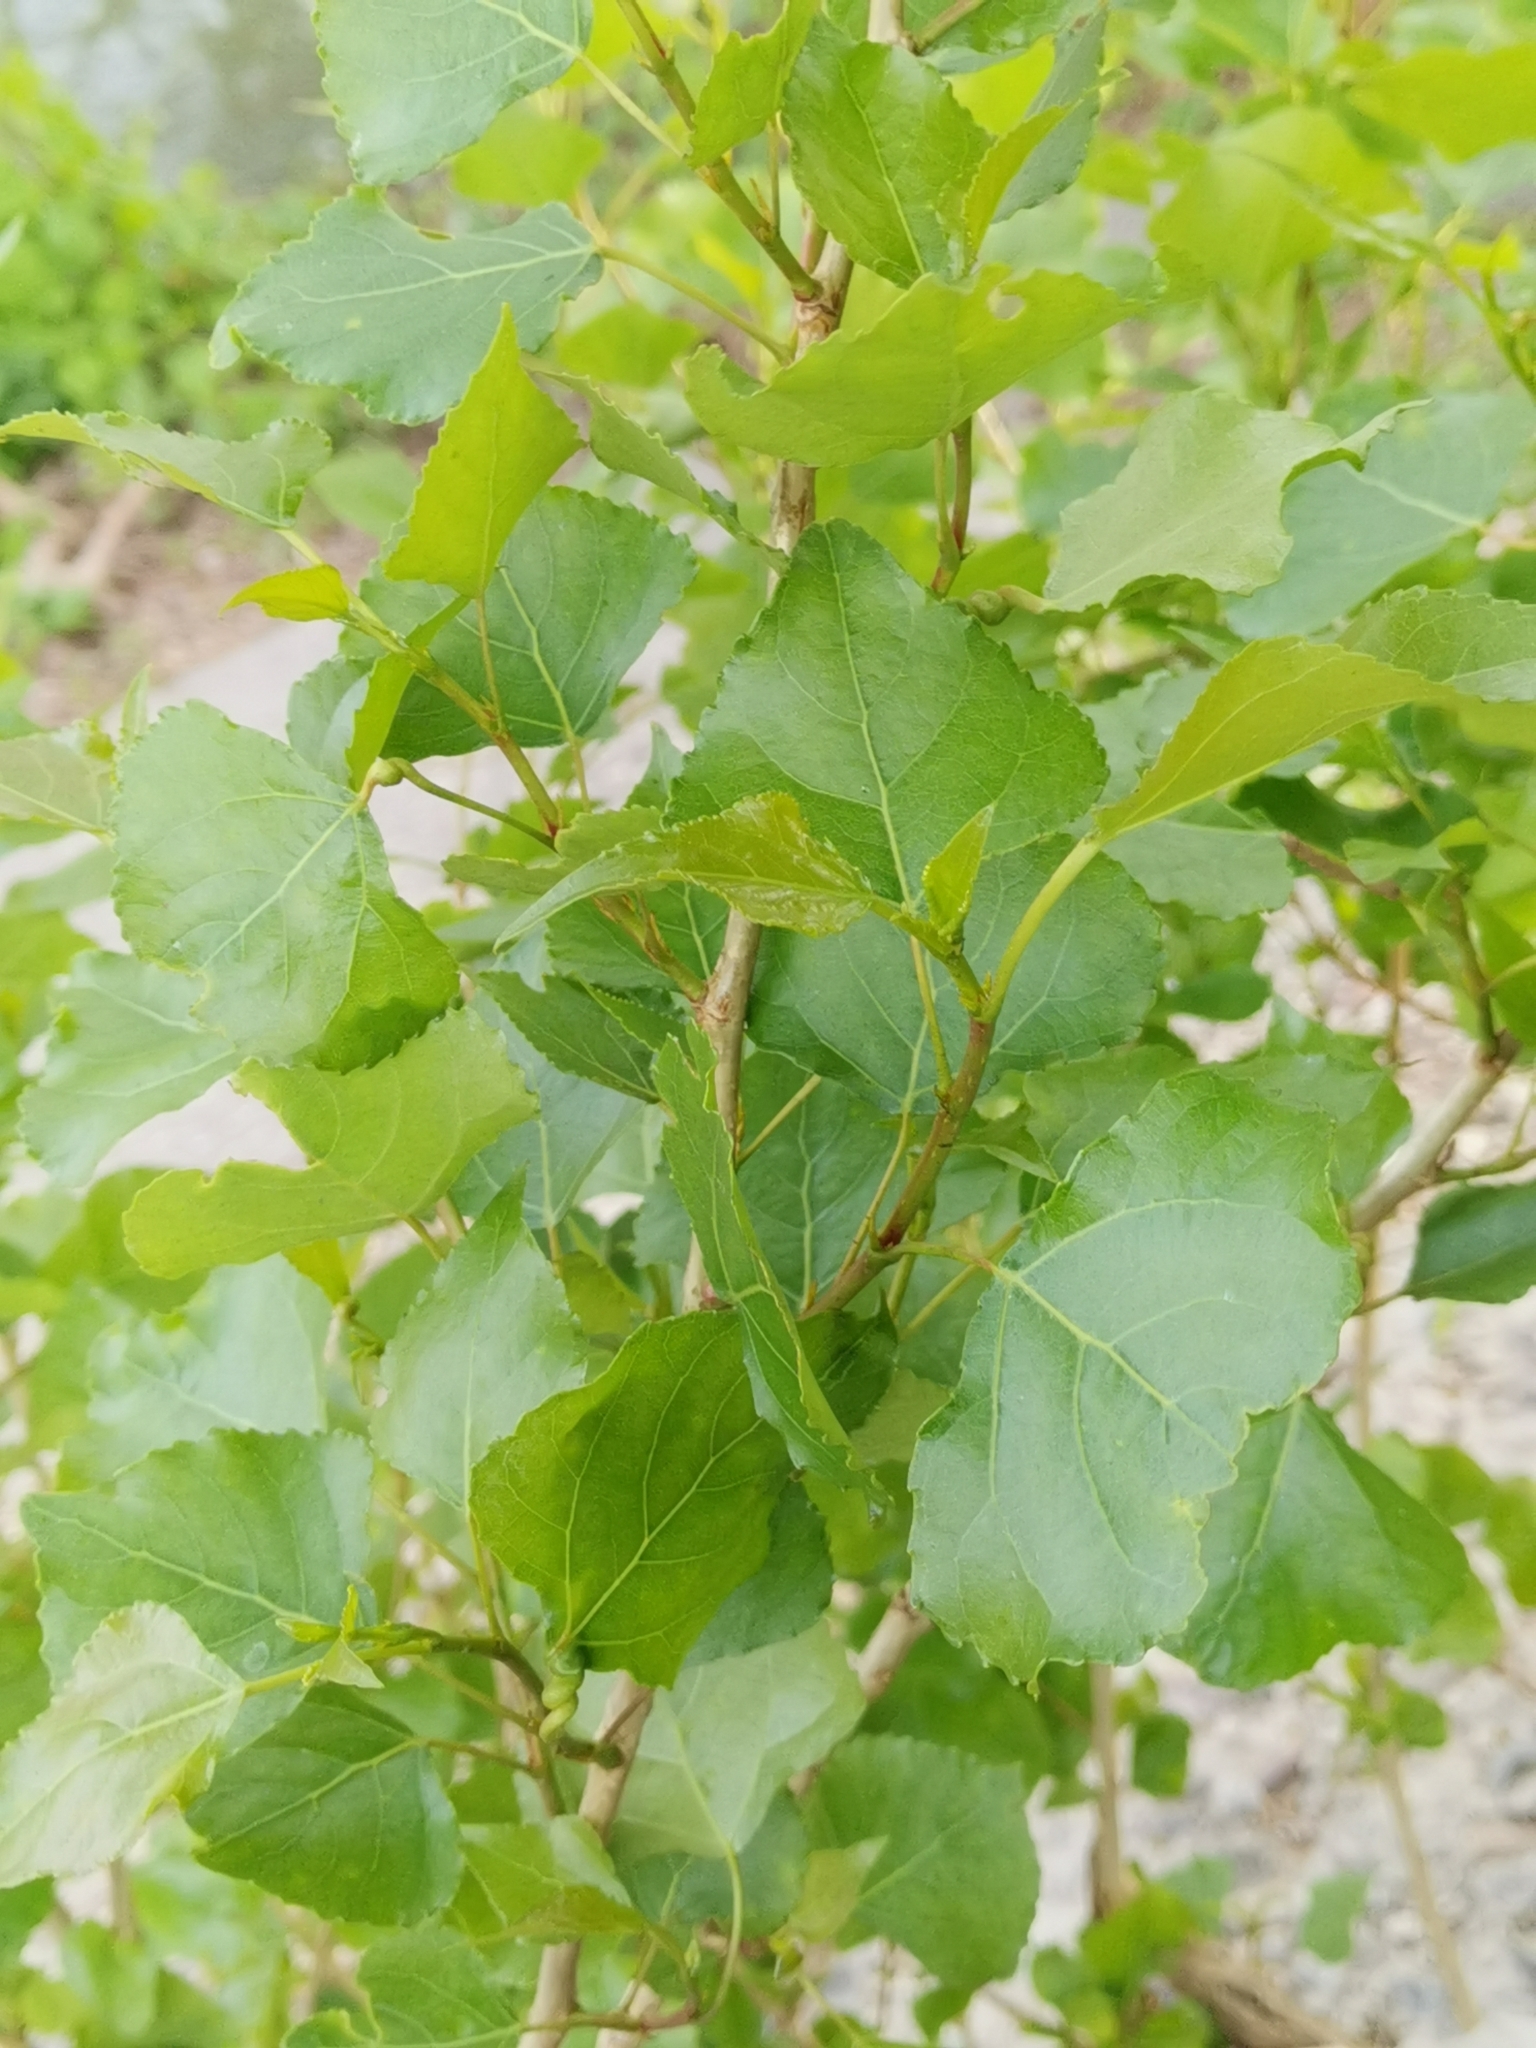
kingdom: Plantae
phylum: Tracheophyta
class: Magnoliopsida
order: Malpighiales
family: Salicaceae
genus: Populus
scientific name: Populus nigra
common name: Black poplar
